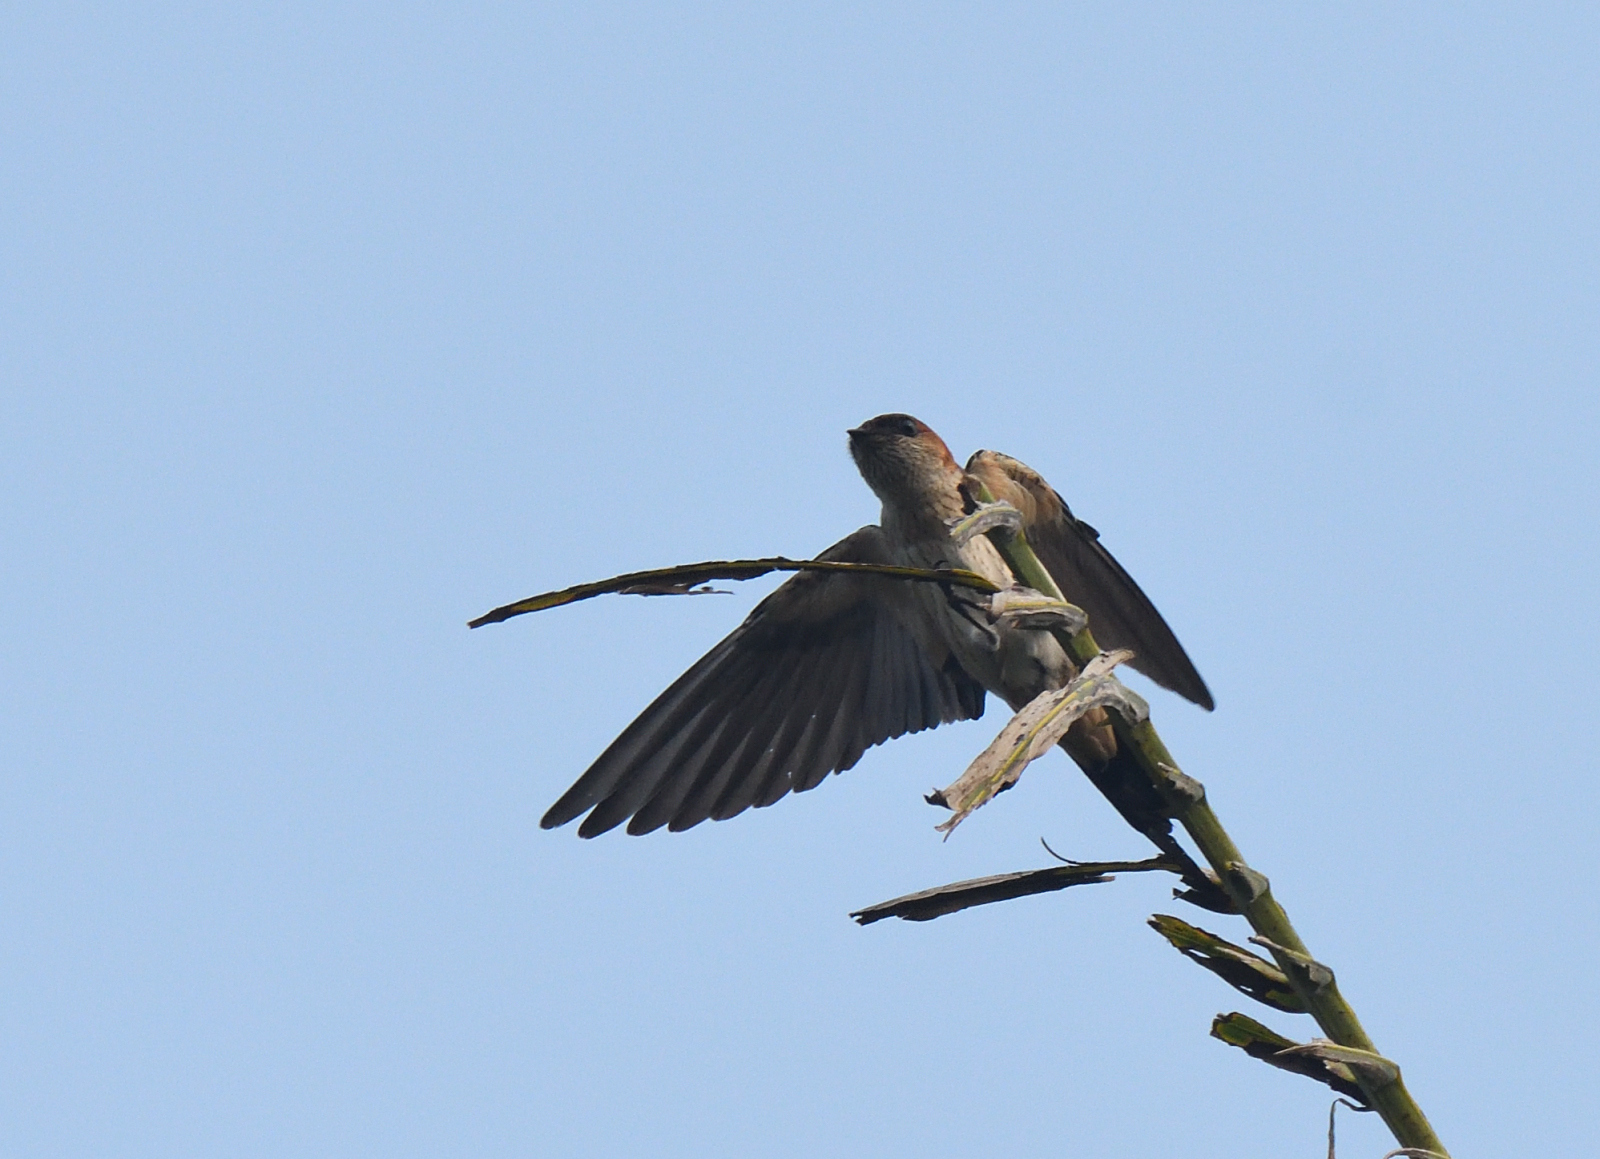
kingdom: Animalia
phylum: Chordata
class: Aves
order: Passeriformes
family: Hirundinidae
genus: Cecropis
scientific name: Cecropis daurica
